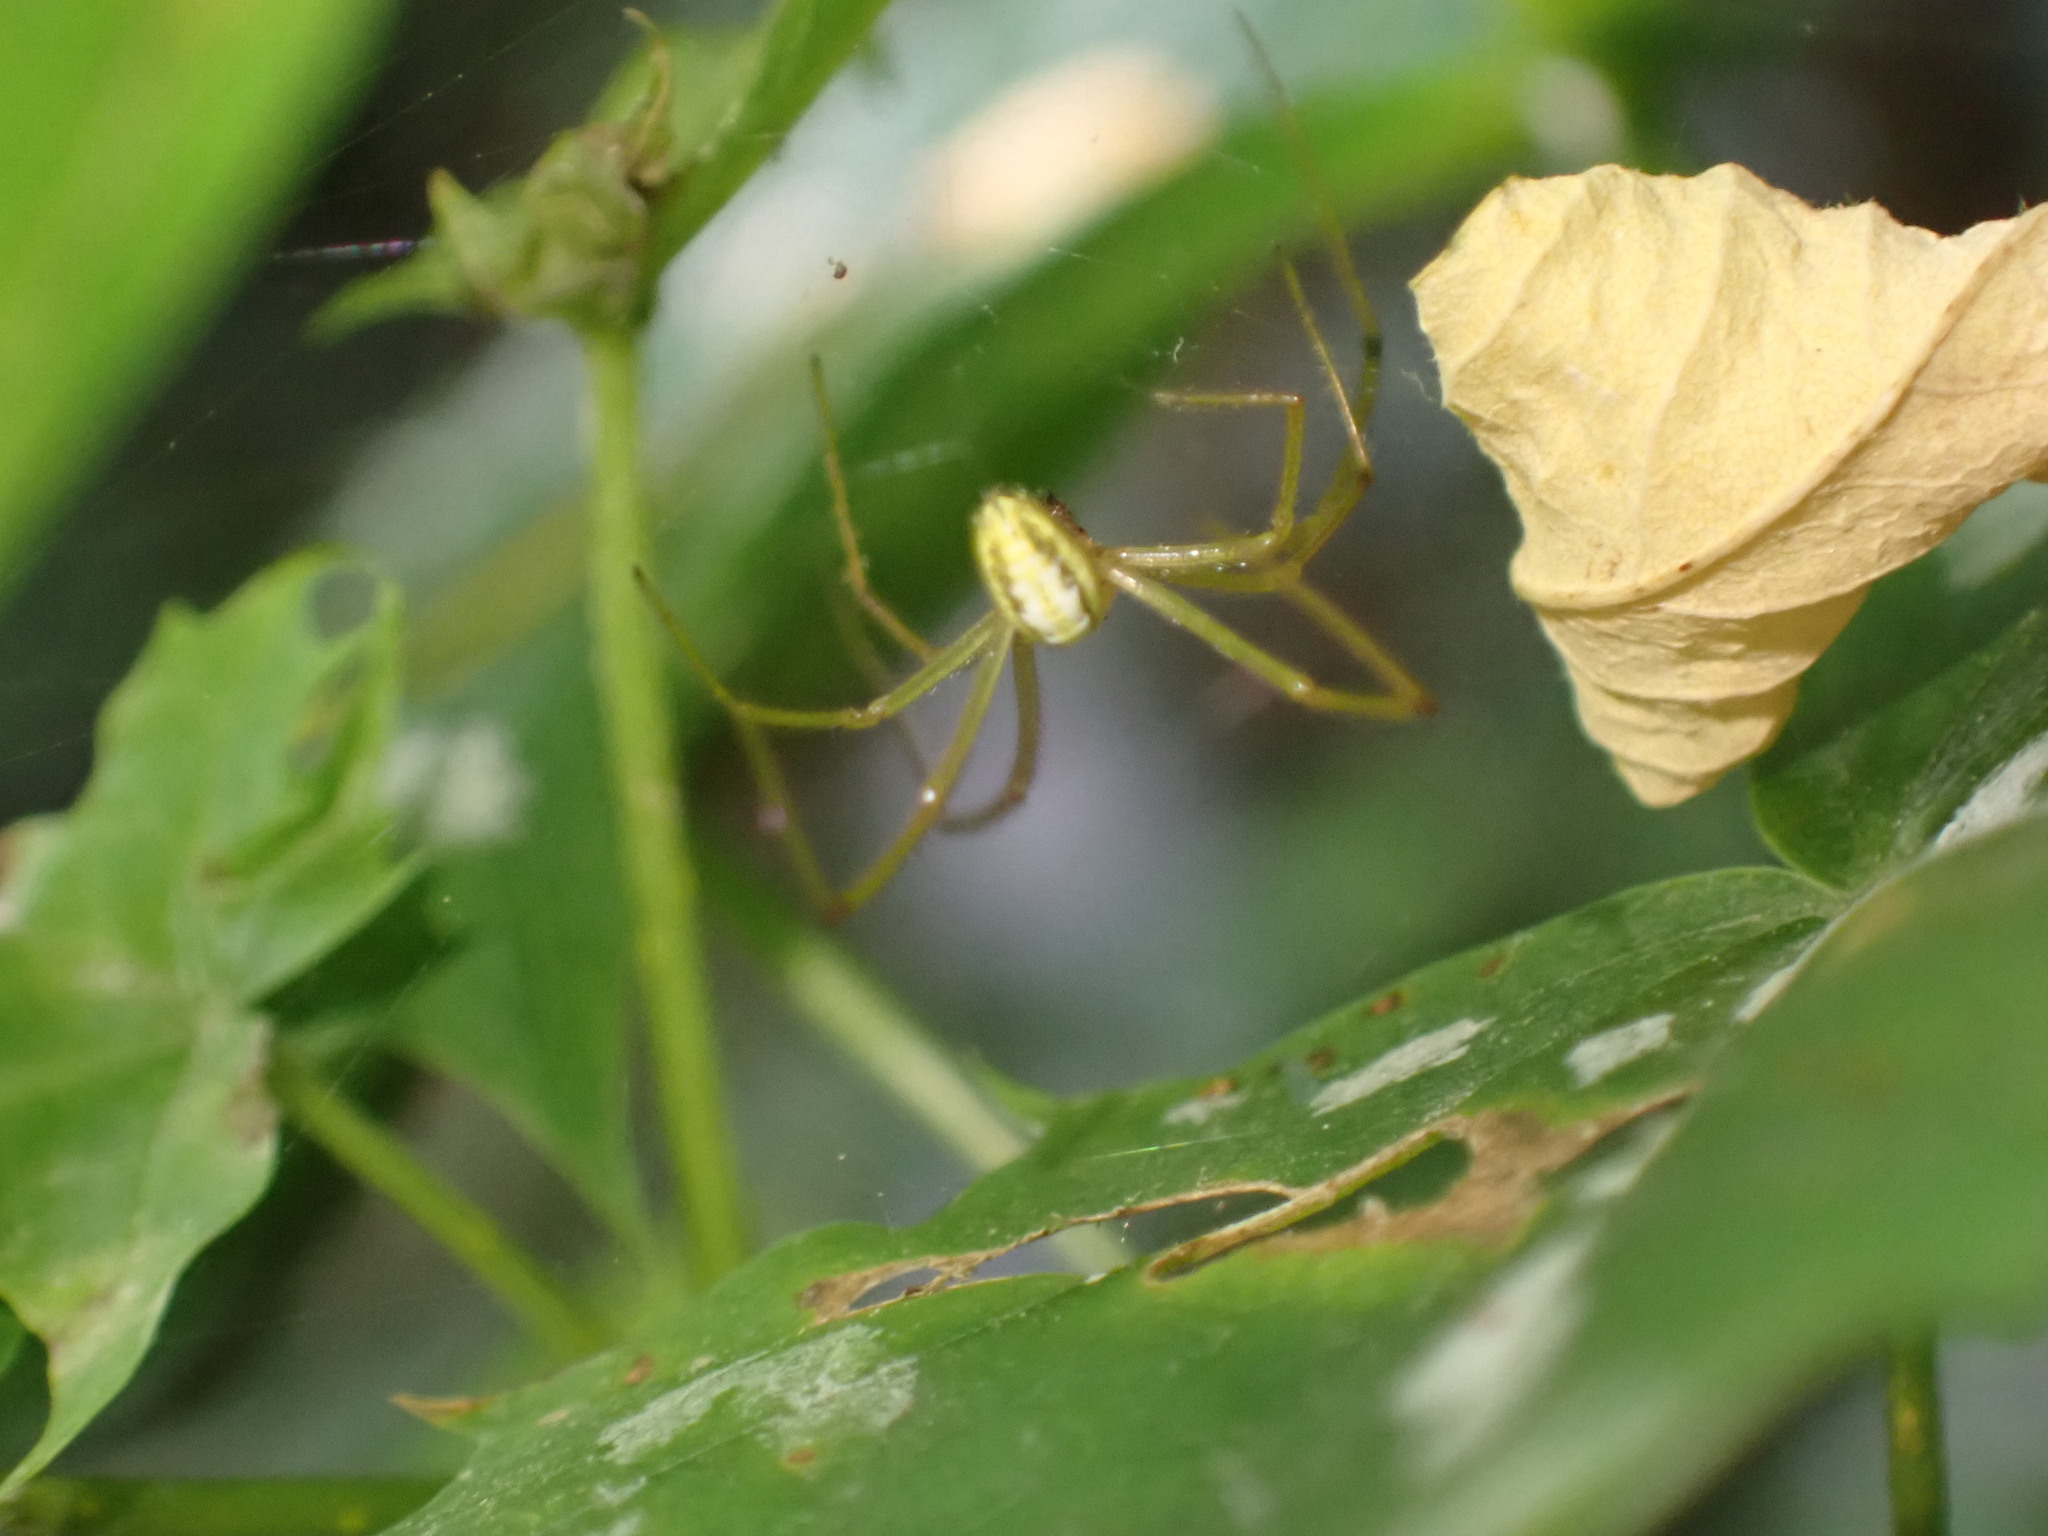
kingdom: Animalia
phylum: Arthropoda
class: Arachnida
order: Araneae
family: Theridiidae
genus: Enoplognatha
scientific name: Enoplognatha
